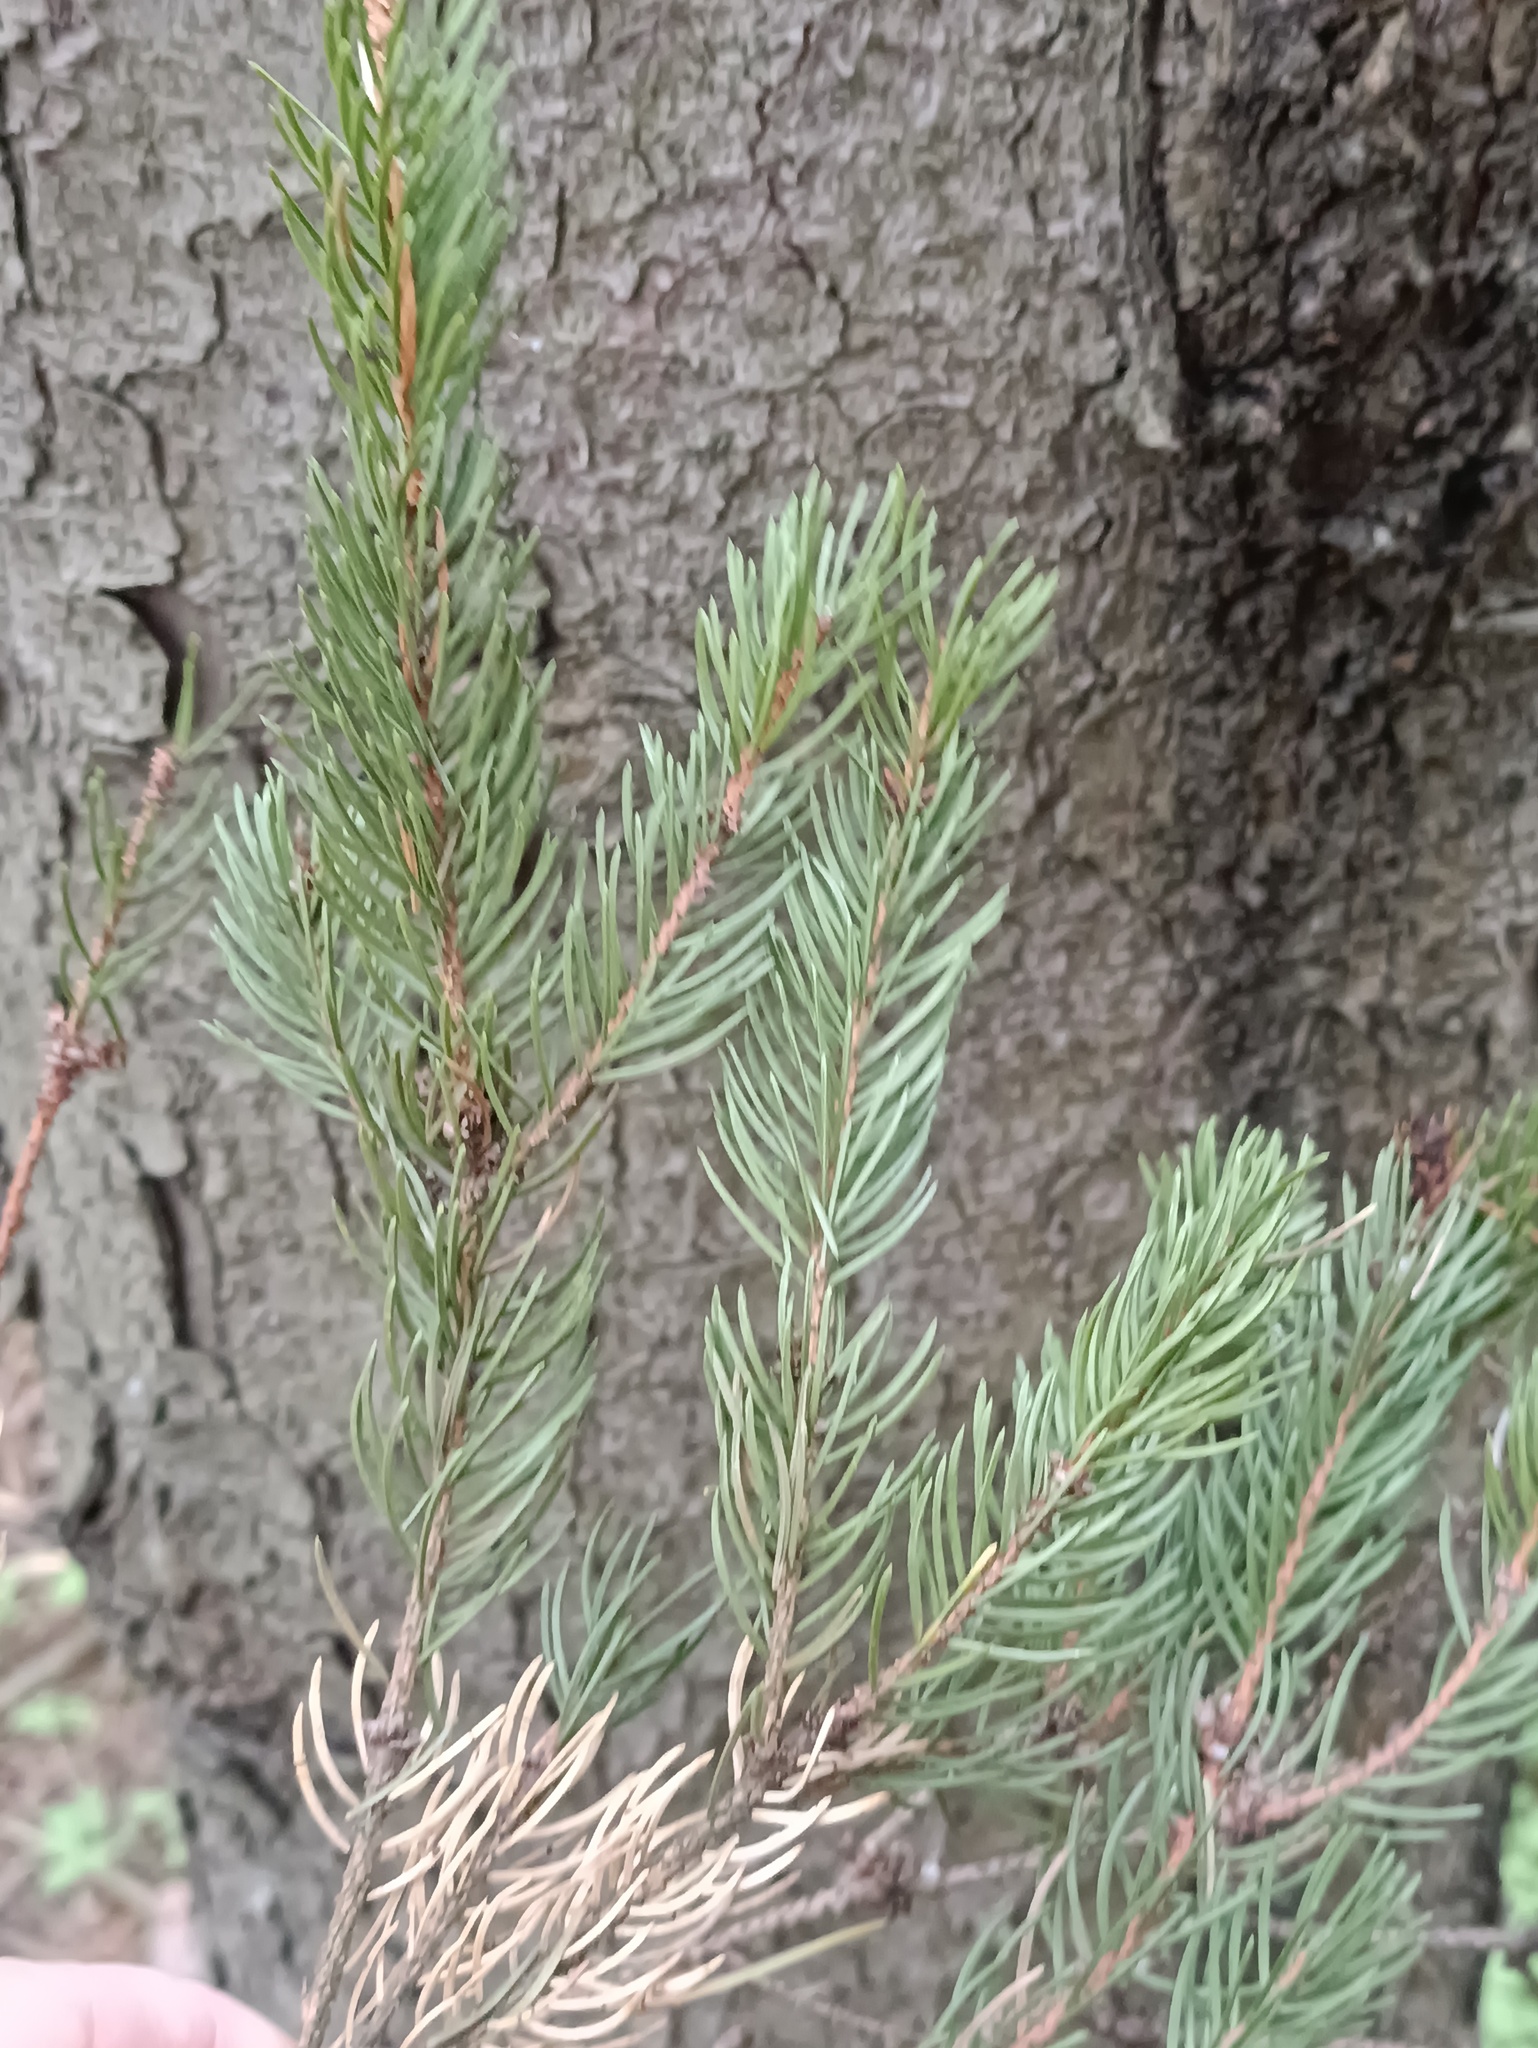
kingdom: Plantae
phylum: Tracheophyta
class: Pinopsida
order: Pinales
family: Pinaceae
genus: Picea
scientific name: Picea abies
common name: Norway spruce
